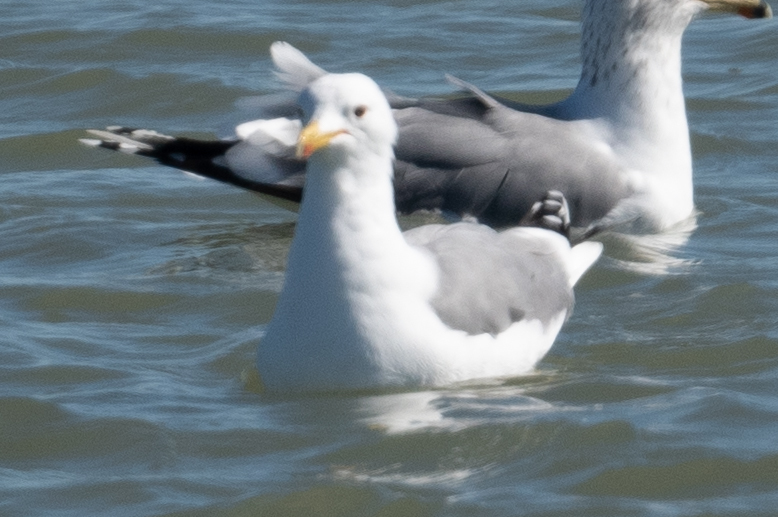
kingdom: Animalia
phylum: Chordata
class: Aves
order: Charadriiformes
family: Laridae
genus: Larus
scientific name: Larus californicus
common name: California gull
